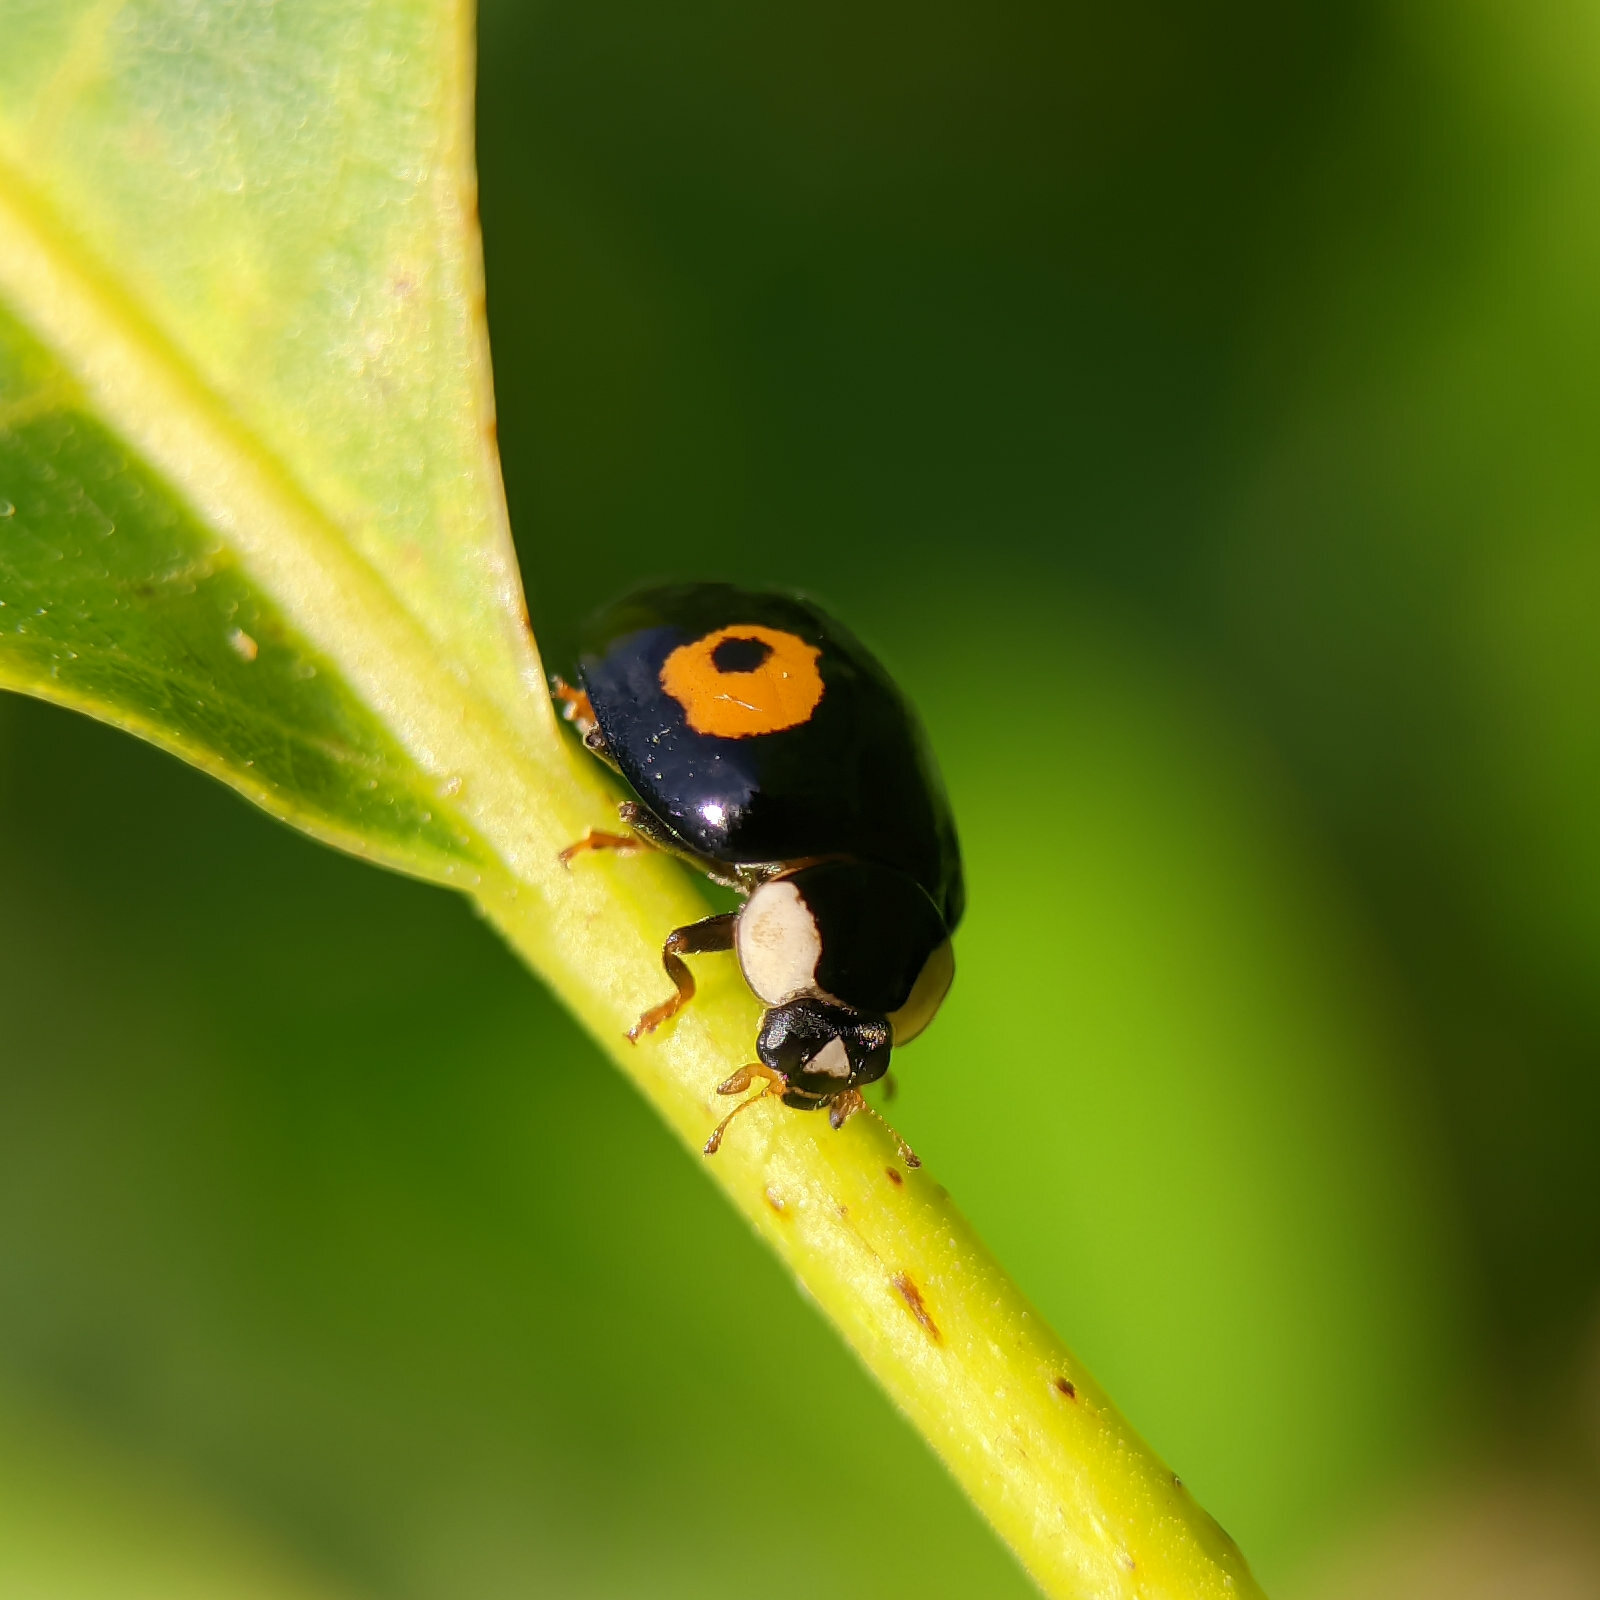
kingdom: Animalia
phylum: Arthropoda
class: Insecta
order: Coleoptera
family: Coccinellidae
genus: Harmonia
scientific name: Harmonia axyridis
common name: Harlequin ladybird
